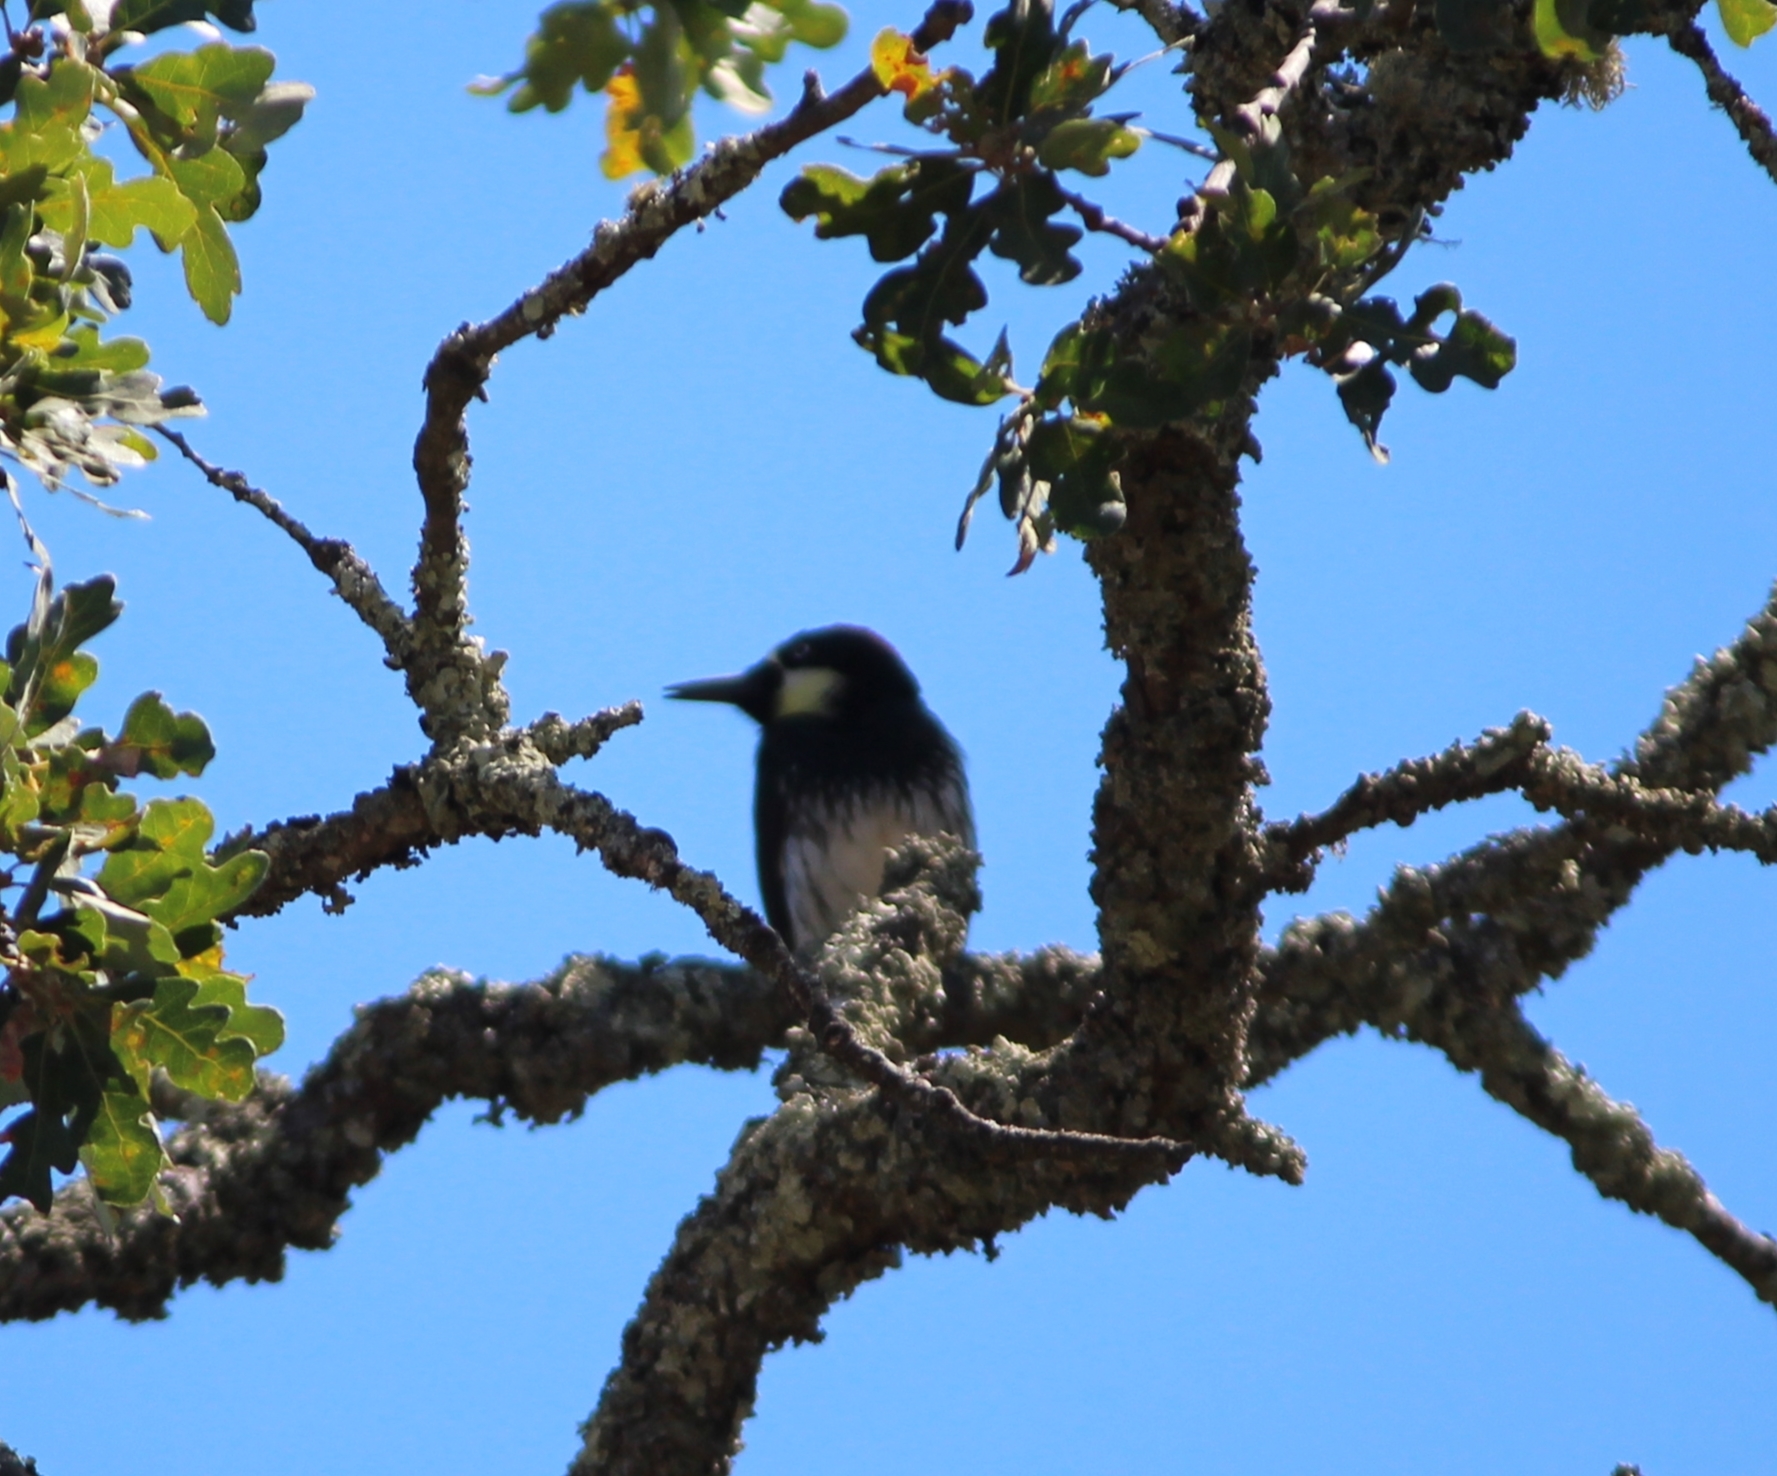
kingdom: Animalia
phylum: Chordata
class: Aves
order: Piciformes
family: Picidae
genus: Melanerpes
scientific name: Melanerpes formicivorus
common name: Acorn woodpecker
